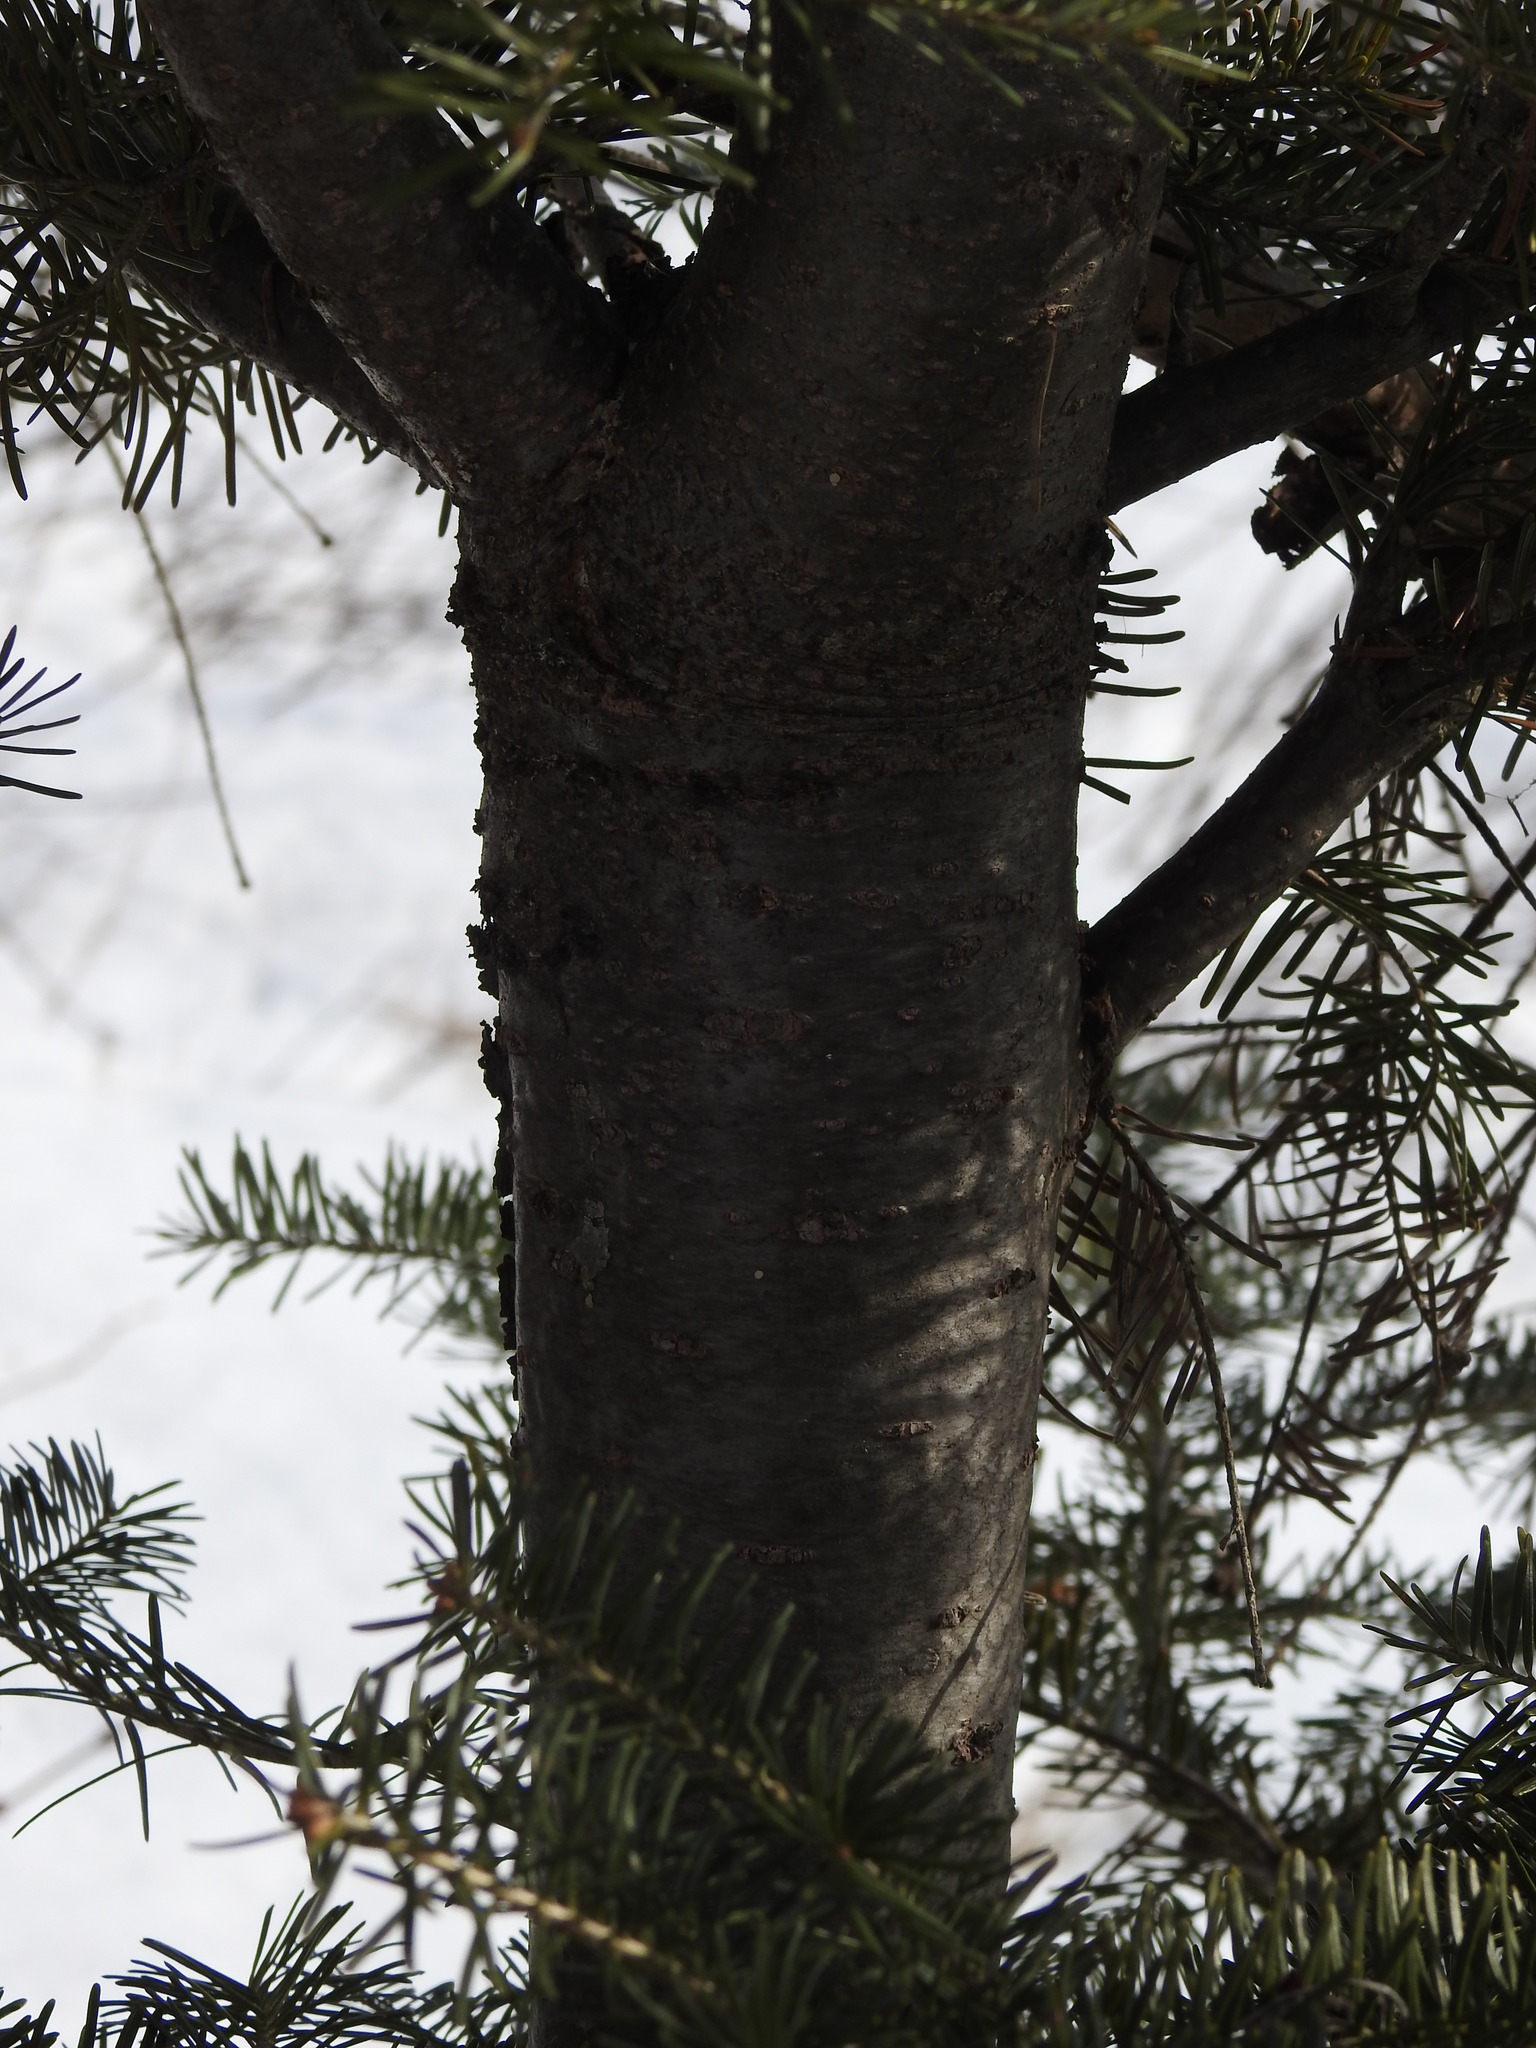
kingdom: Plantae
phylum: Tracheophyta
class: Pinopsida
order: Pinales
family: Pinaceae
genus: Abies
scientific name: Abies balsamea
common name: Balsam fir
